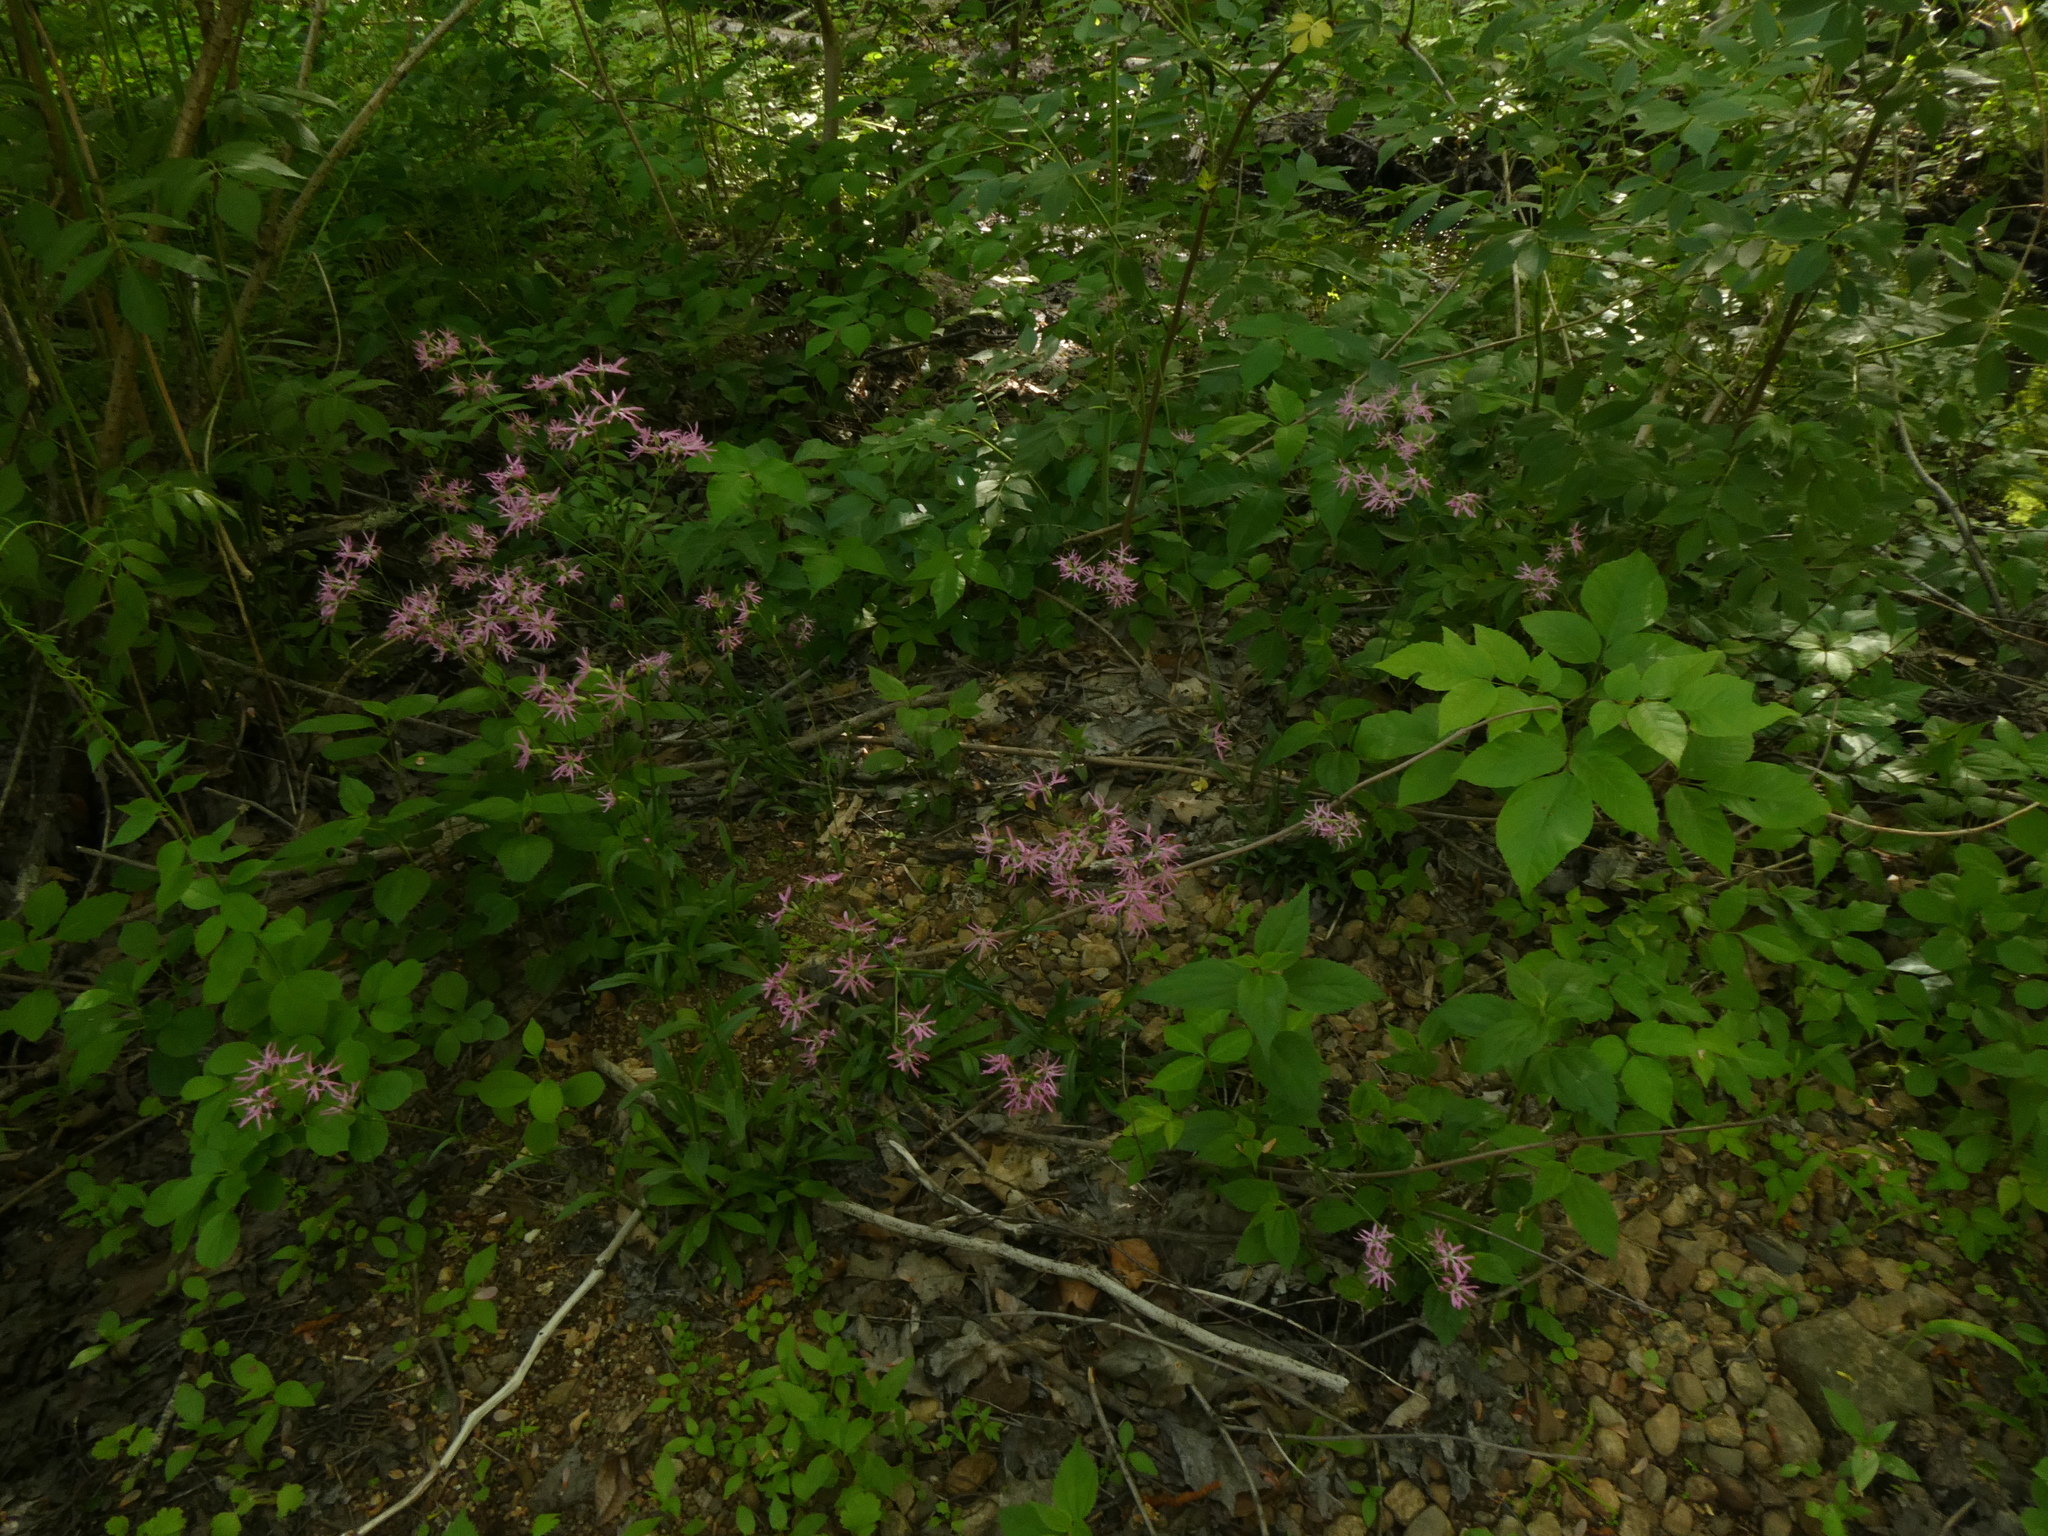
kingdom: Plantae
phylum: Tracheophyta
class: Magnoliopsida
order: Caryophyllales
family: Caryophyllaceae
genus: Silene
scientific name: Silene flos-cuculi
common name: Ragged-robin
